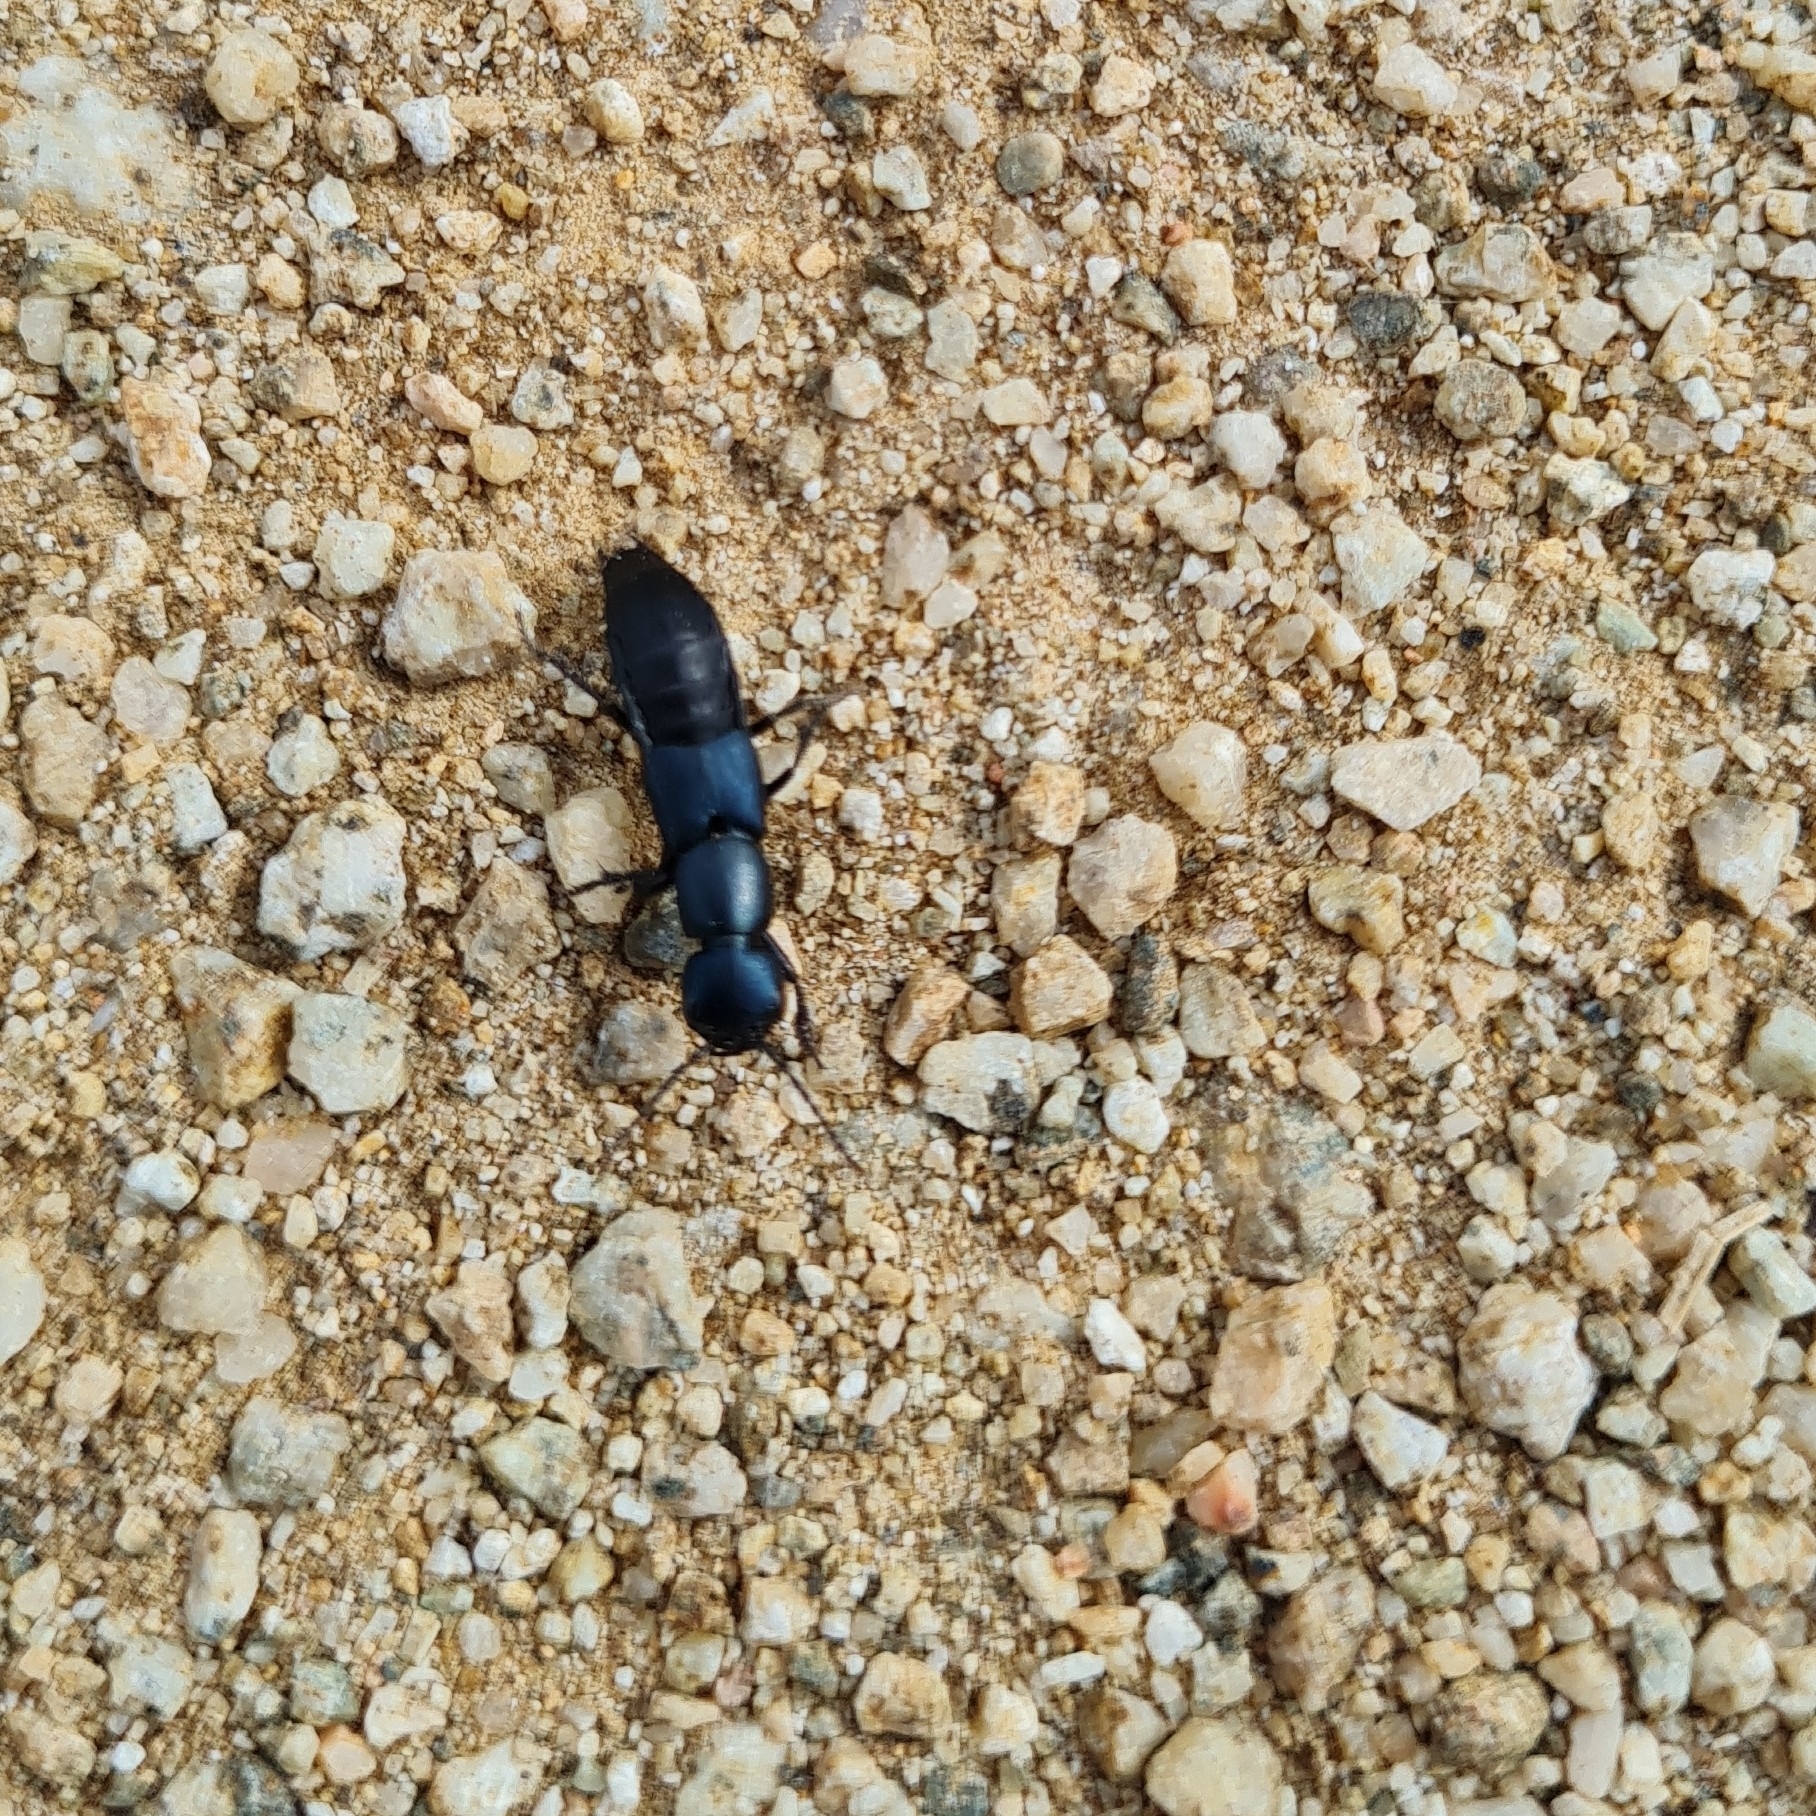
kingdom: Animalia
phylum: Arthropoda
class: Insecta
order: Coleoptera
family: Staphylinidae
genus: Ocypus
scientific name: Ocypus ophthalmicus
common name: Blue rove-beetle
